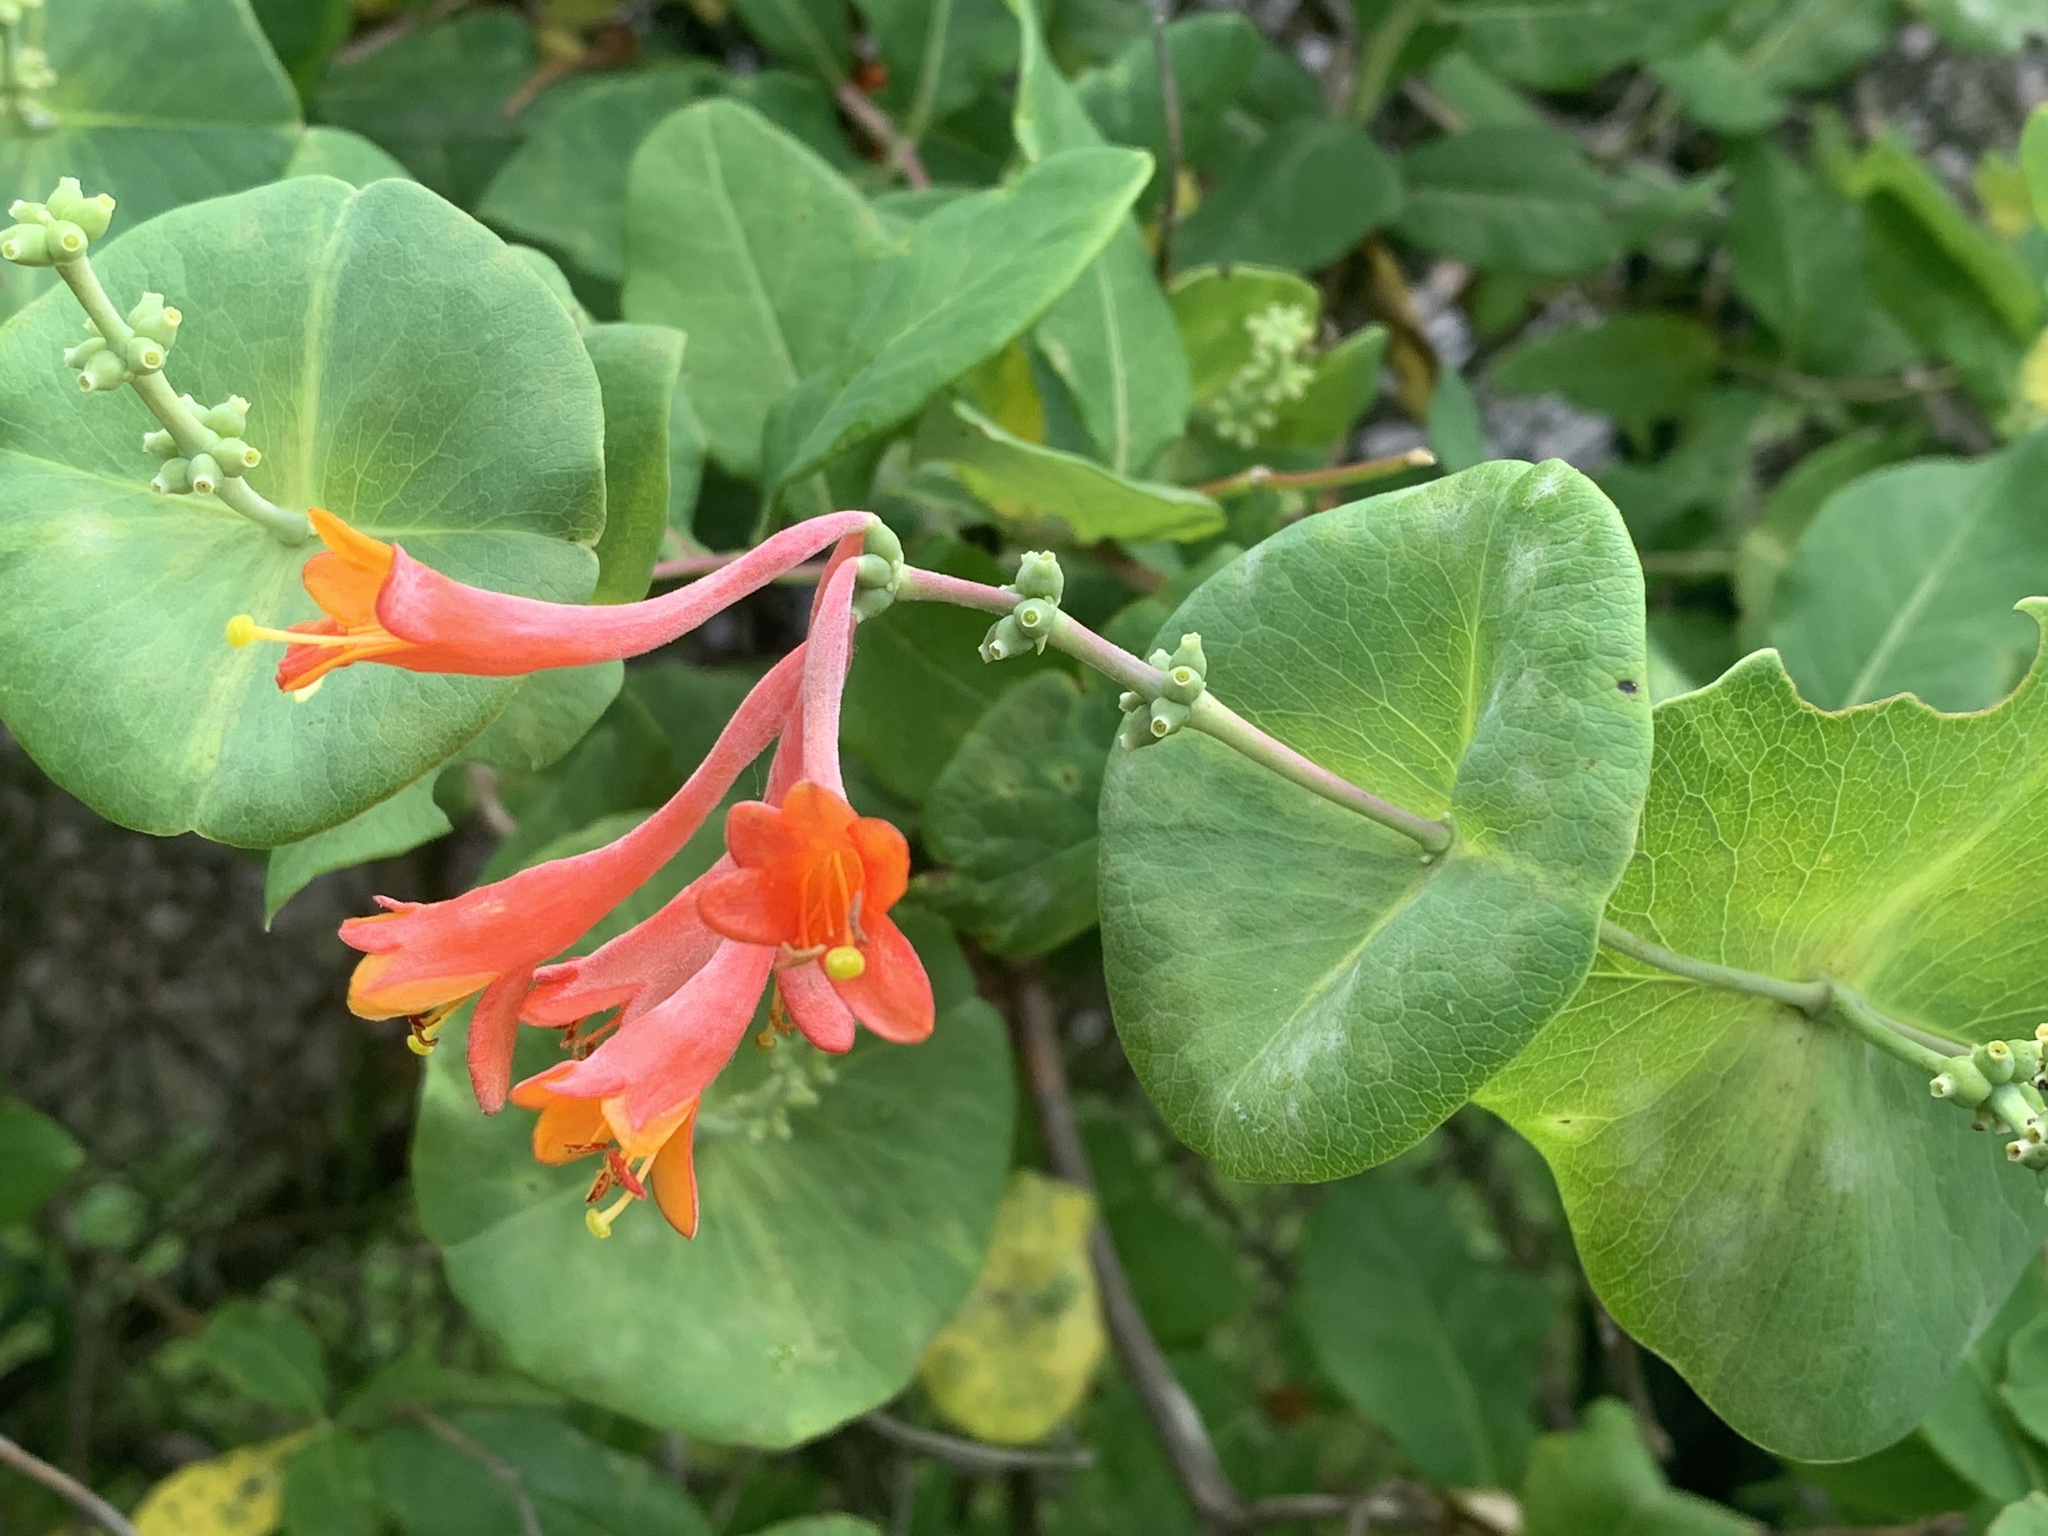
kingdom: Plantae
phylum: Tracheophyta
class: Magnoliopsida
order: Dipsacales
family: Caprifoliaceae
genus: Lonicera
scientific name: Lonicera sempervirens
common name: Coral honeysuckle
